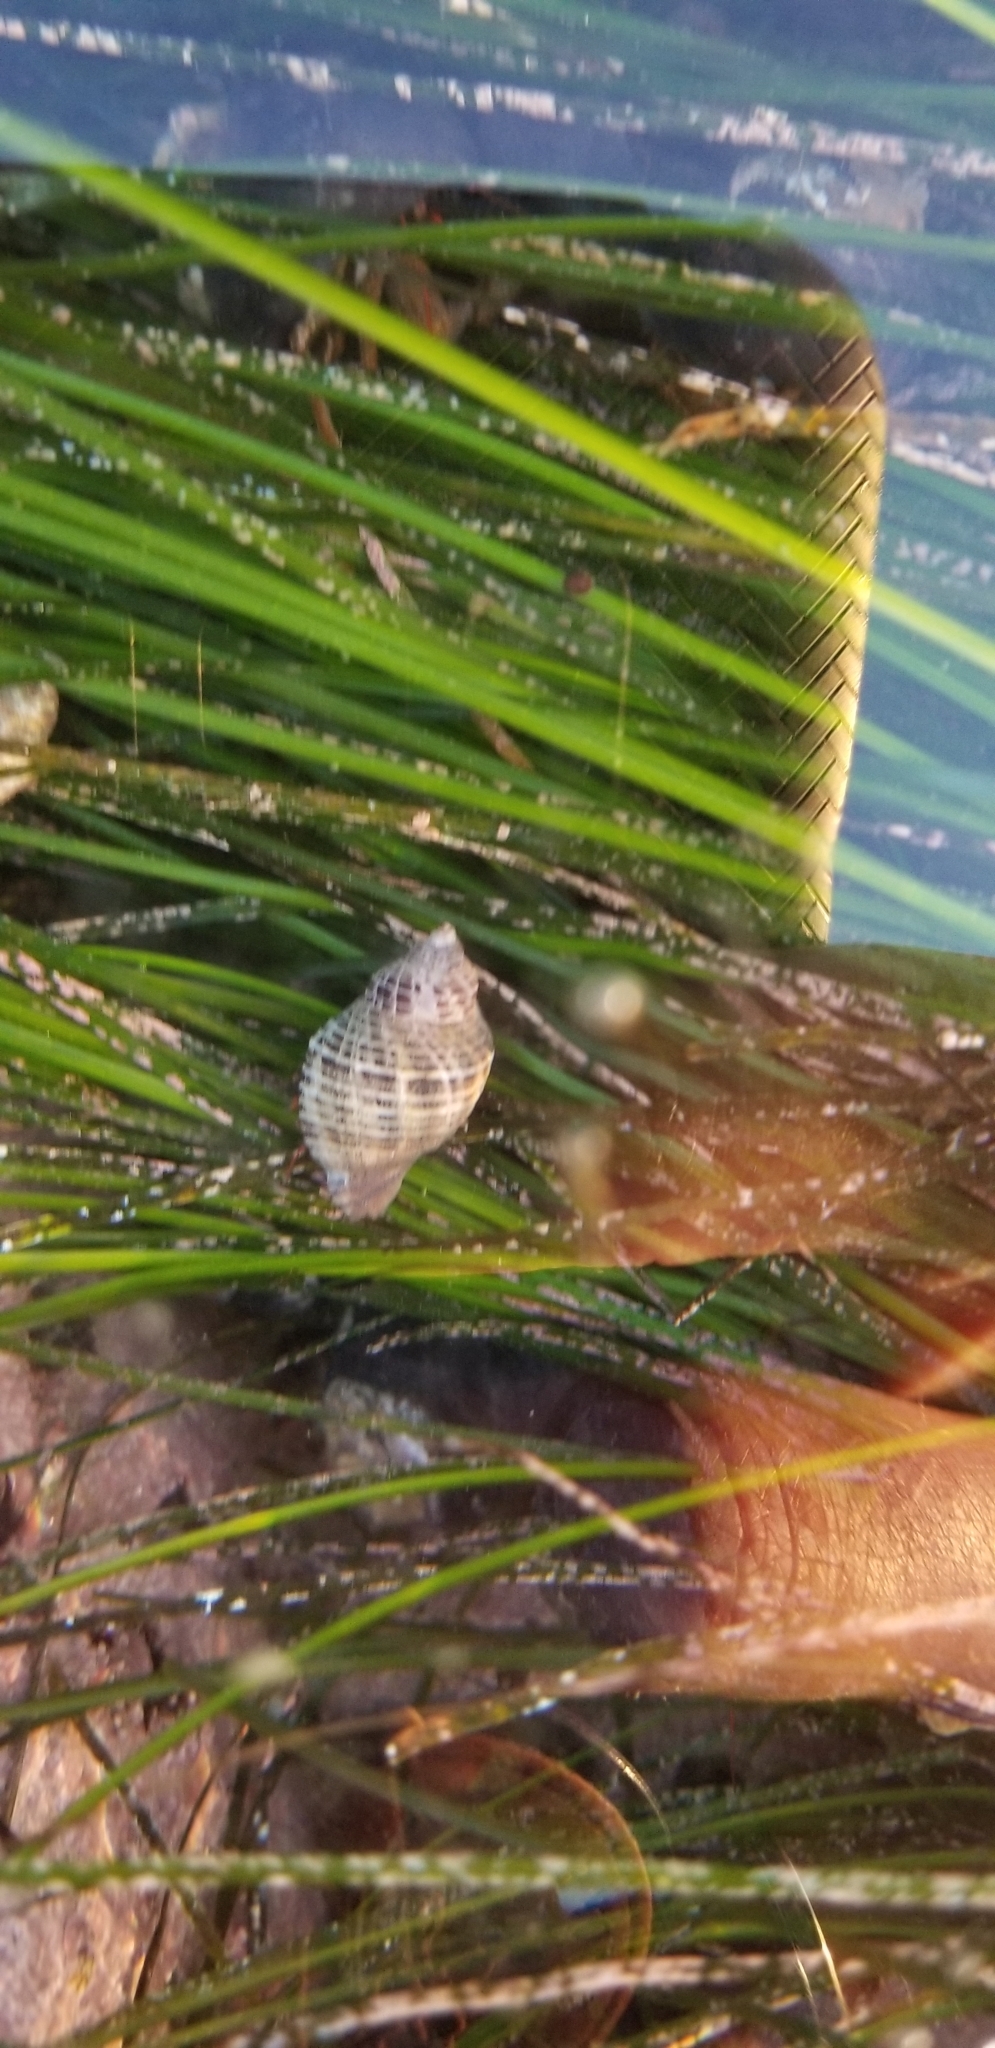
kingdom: Animalia
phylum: Mollusca
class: Gastropoda
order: Neogastropoda
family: Muricidae
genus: Acanthinucella
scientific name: Acanthinucella punctulata
